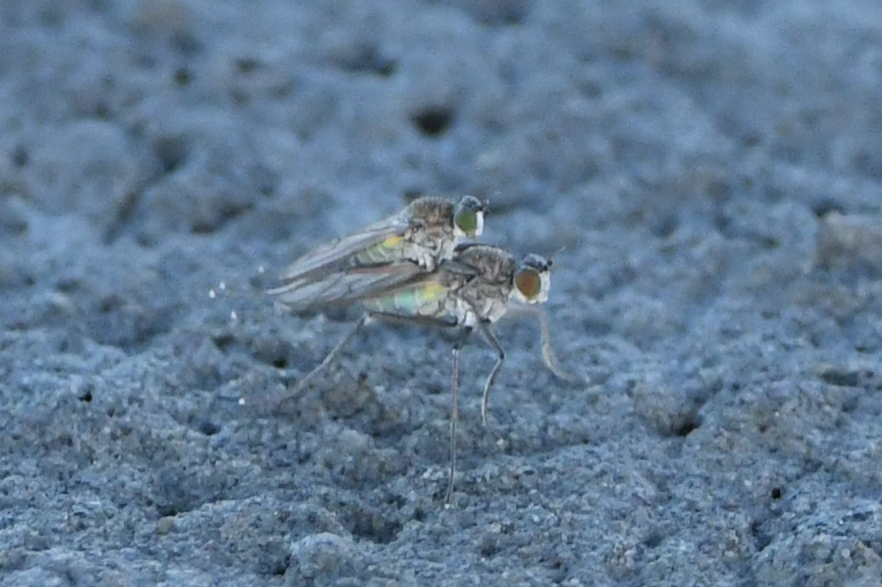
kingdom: Animalia
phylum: Arthropoda
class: Insecta
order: Diptera
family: Dolichopodidae
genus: Hydrophorus
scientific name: Hydrophorus praecox
